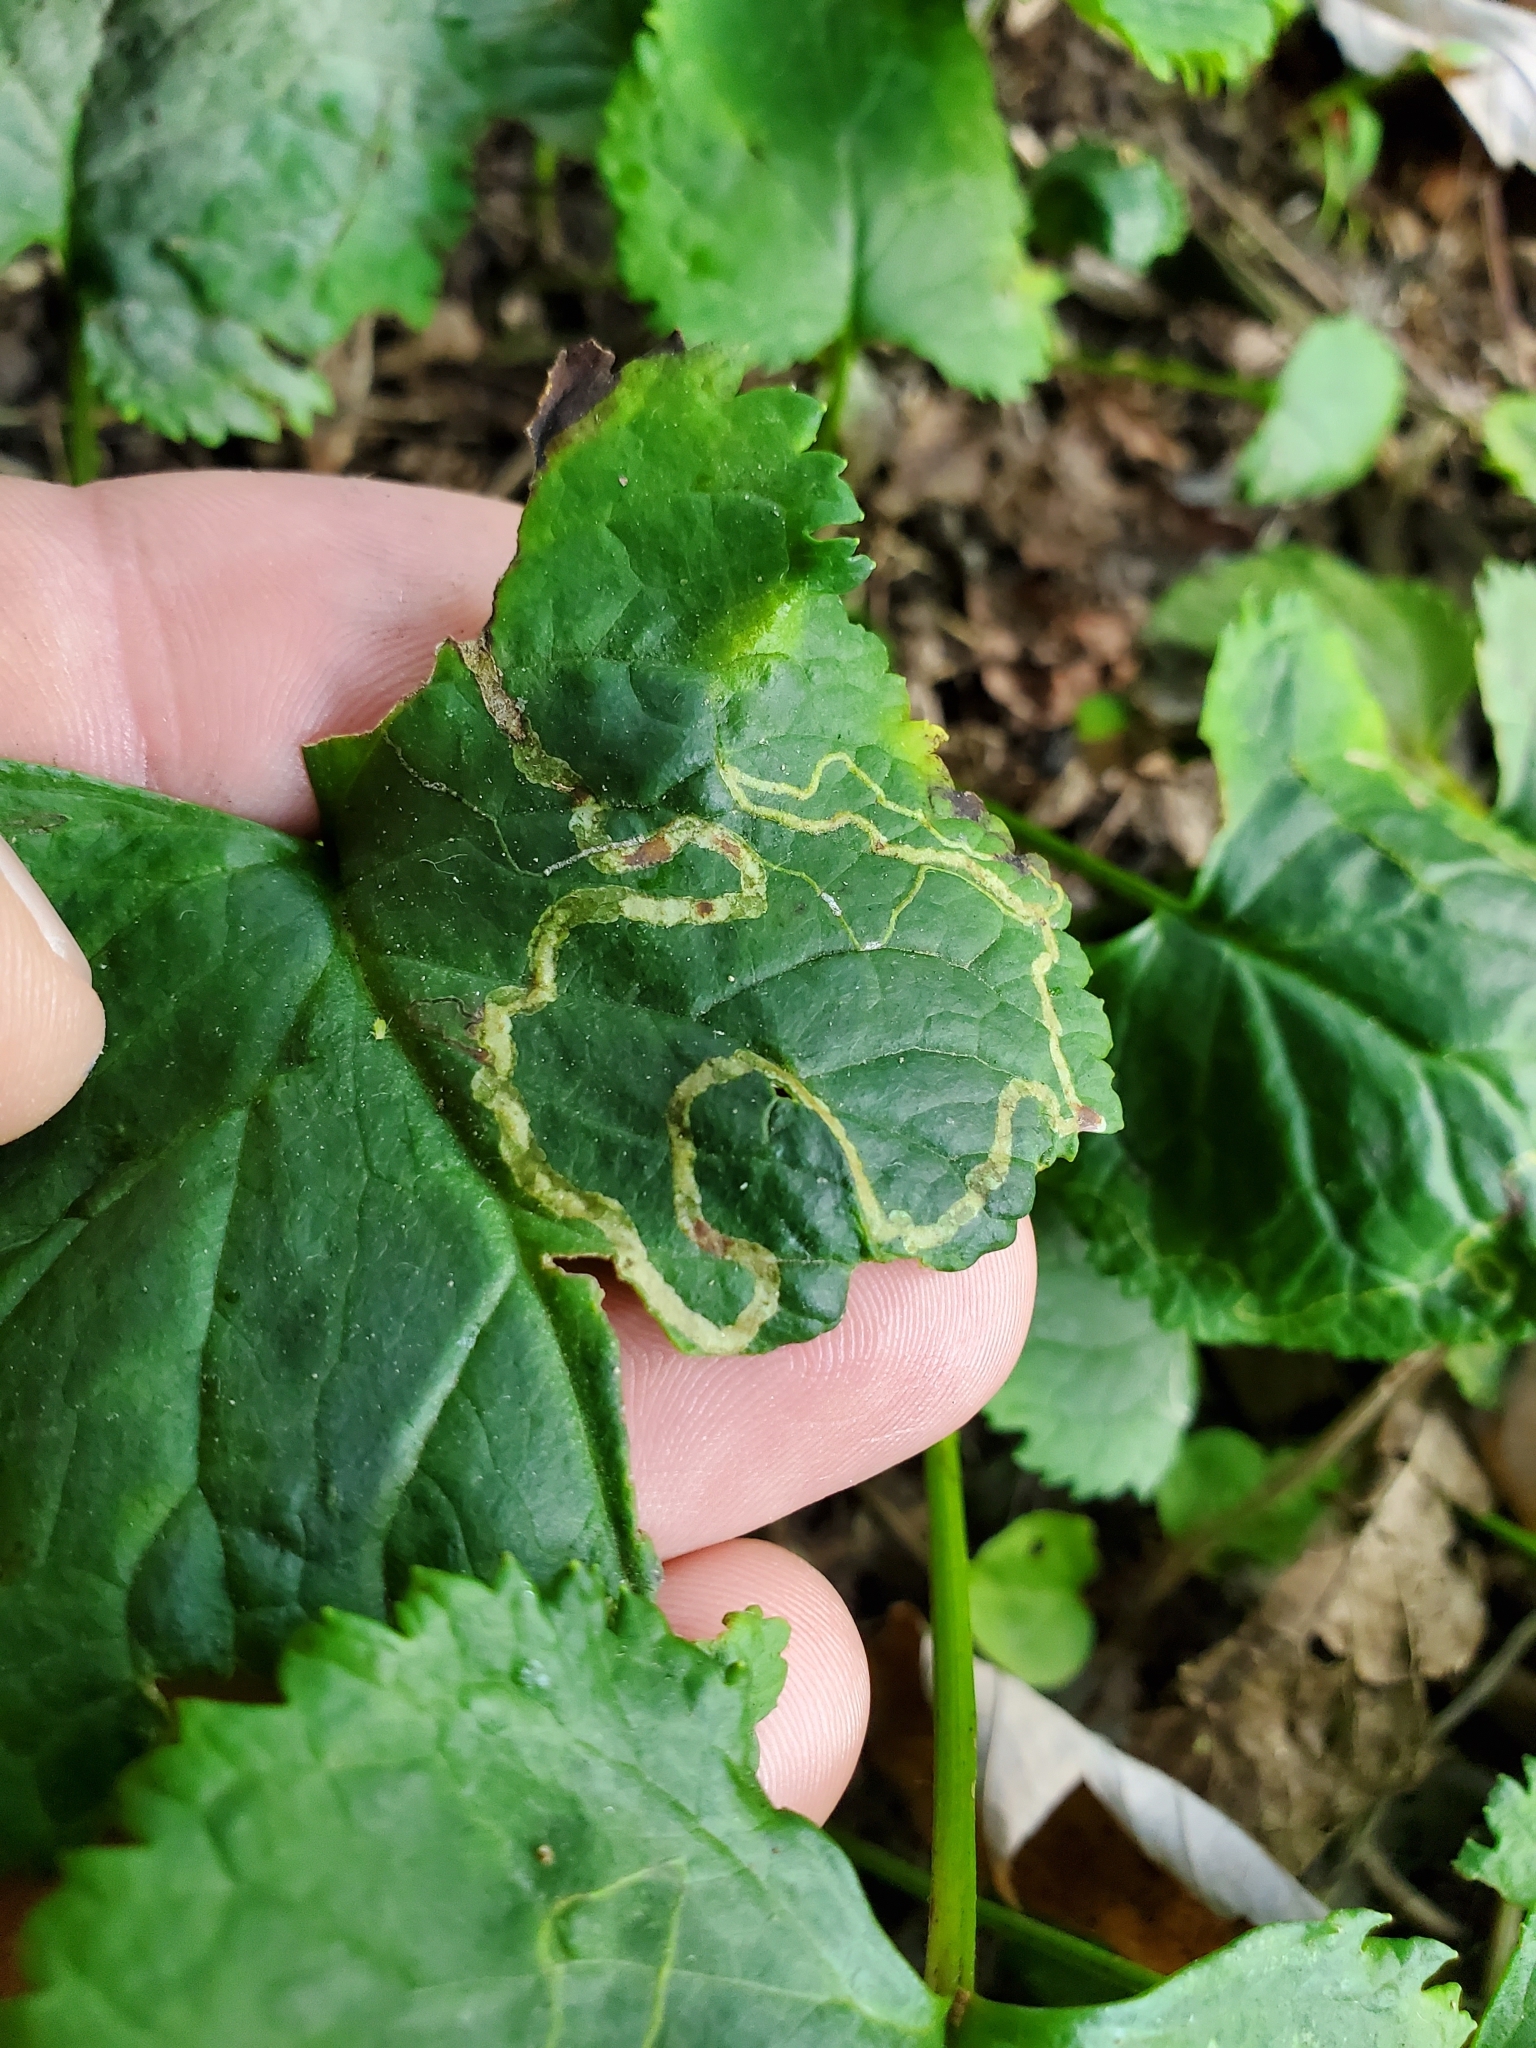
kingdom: Animalia
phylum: Arthropoda
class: Insecta
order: Lepidoptera
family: Gracillariidae
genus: Phyllocnistis
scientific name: Phyllocnistis insignis
